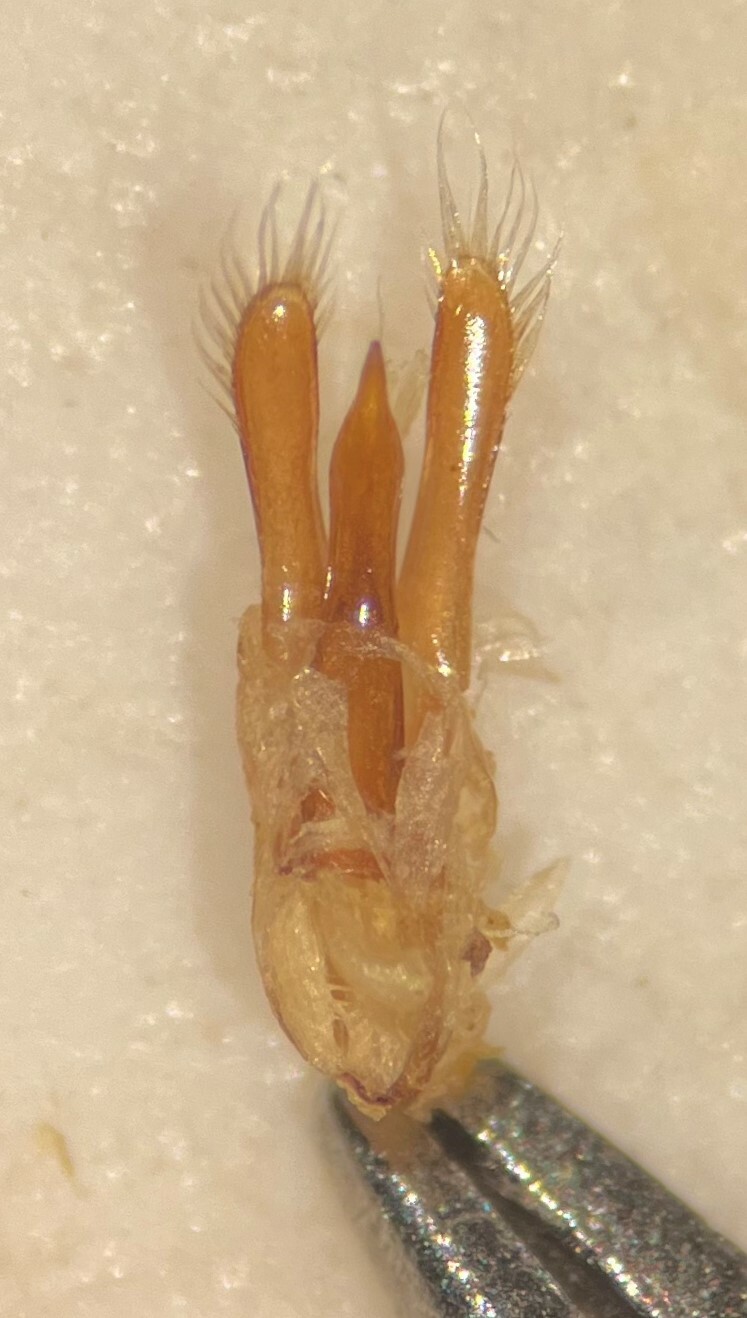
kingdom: Animalia
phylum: Arthropoda
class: Insecta
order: Coleoptera
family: Gyrinidae
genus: Dineutus
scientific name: Dineutus assimilis
